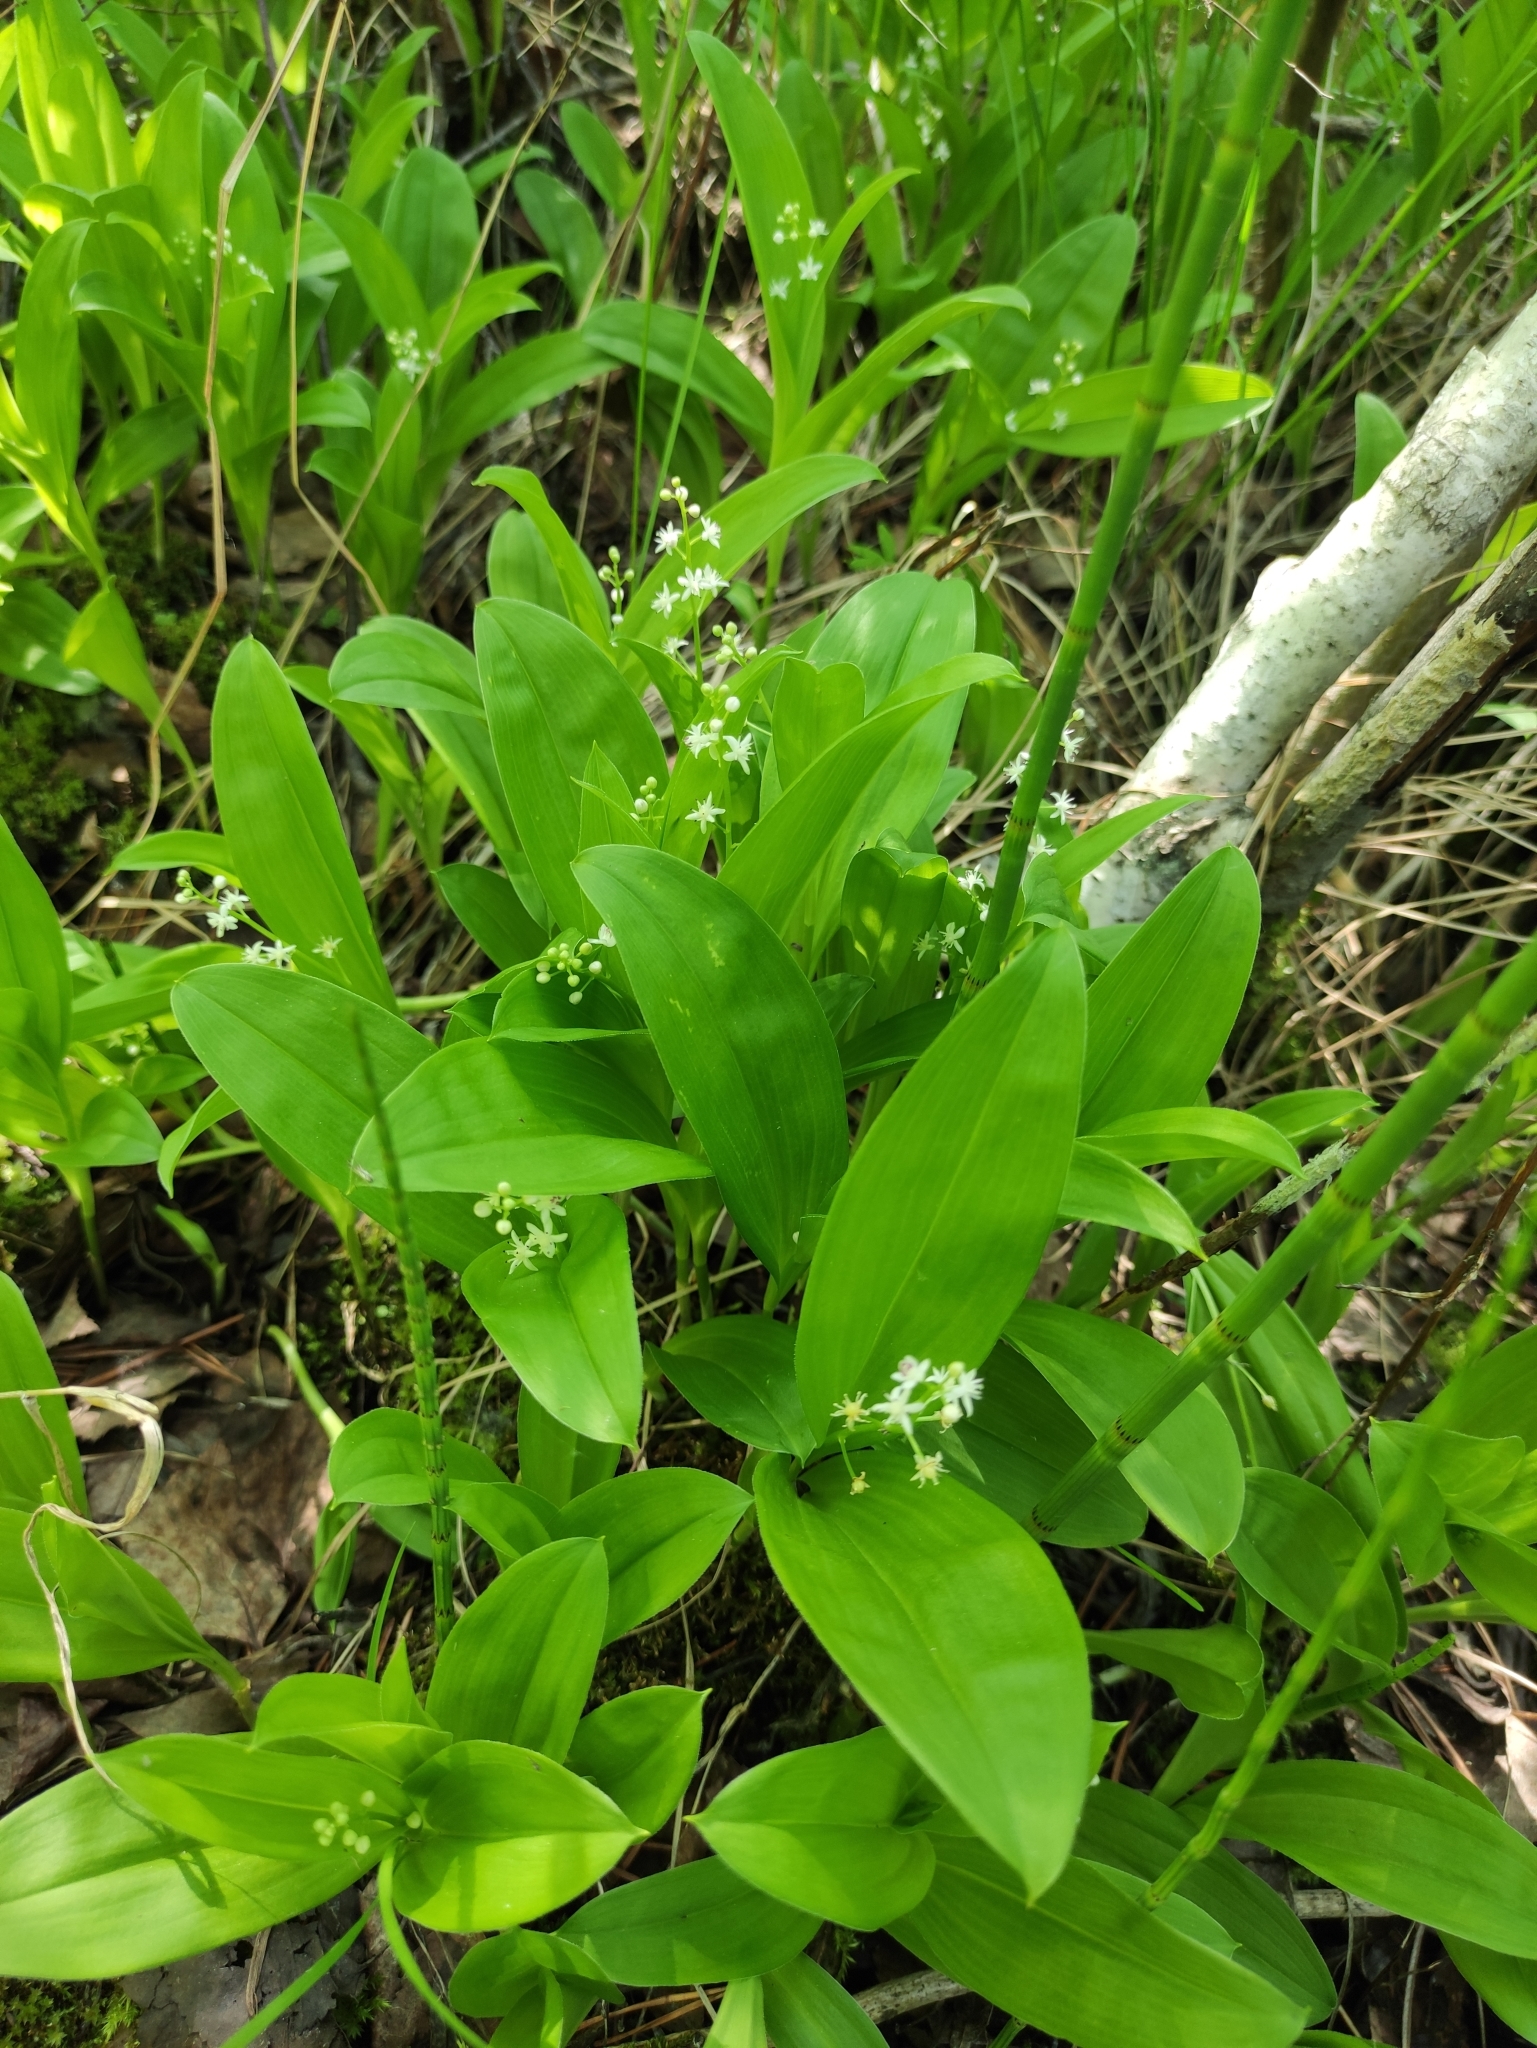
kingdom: Plantae
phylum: Tracheophyta
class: Liliopsida
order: Asparagales
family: Asparagaceae
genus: Maianthemum
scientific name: Maianthemum trifolium
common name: Swamp false solomon's seal
